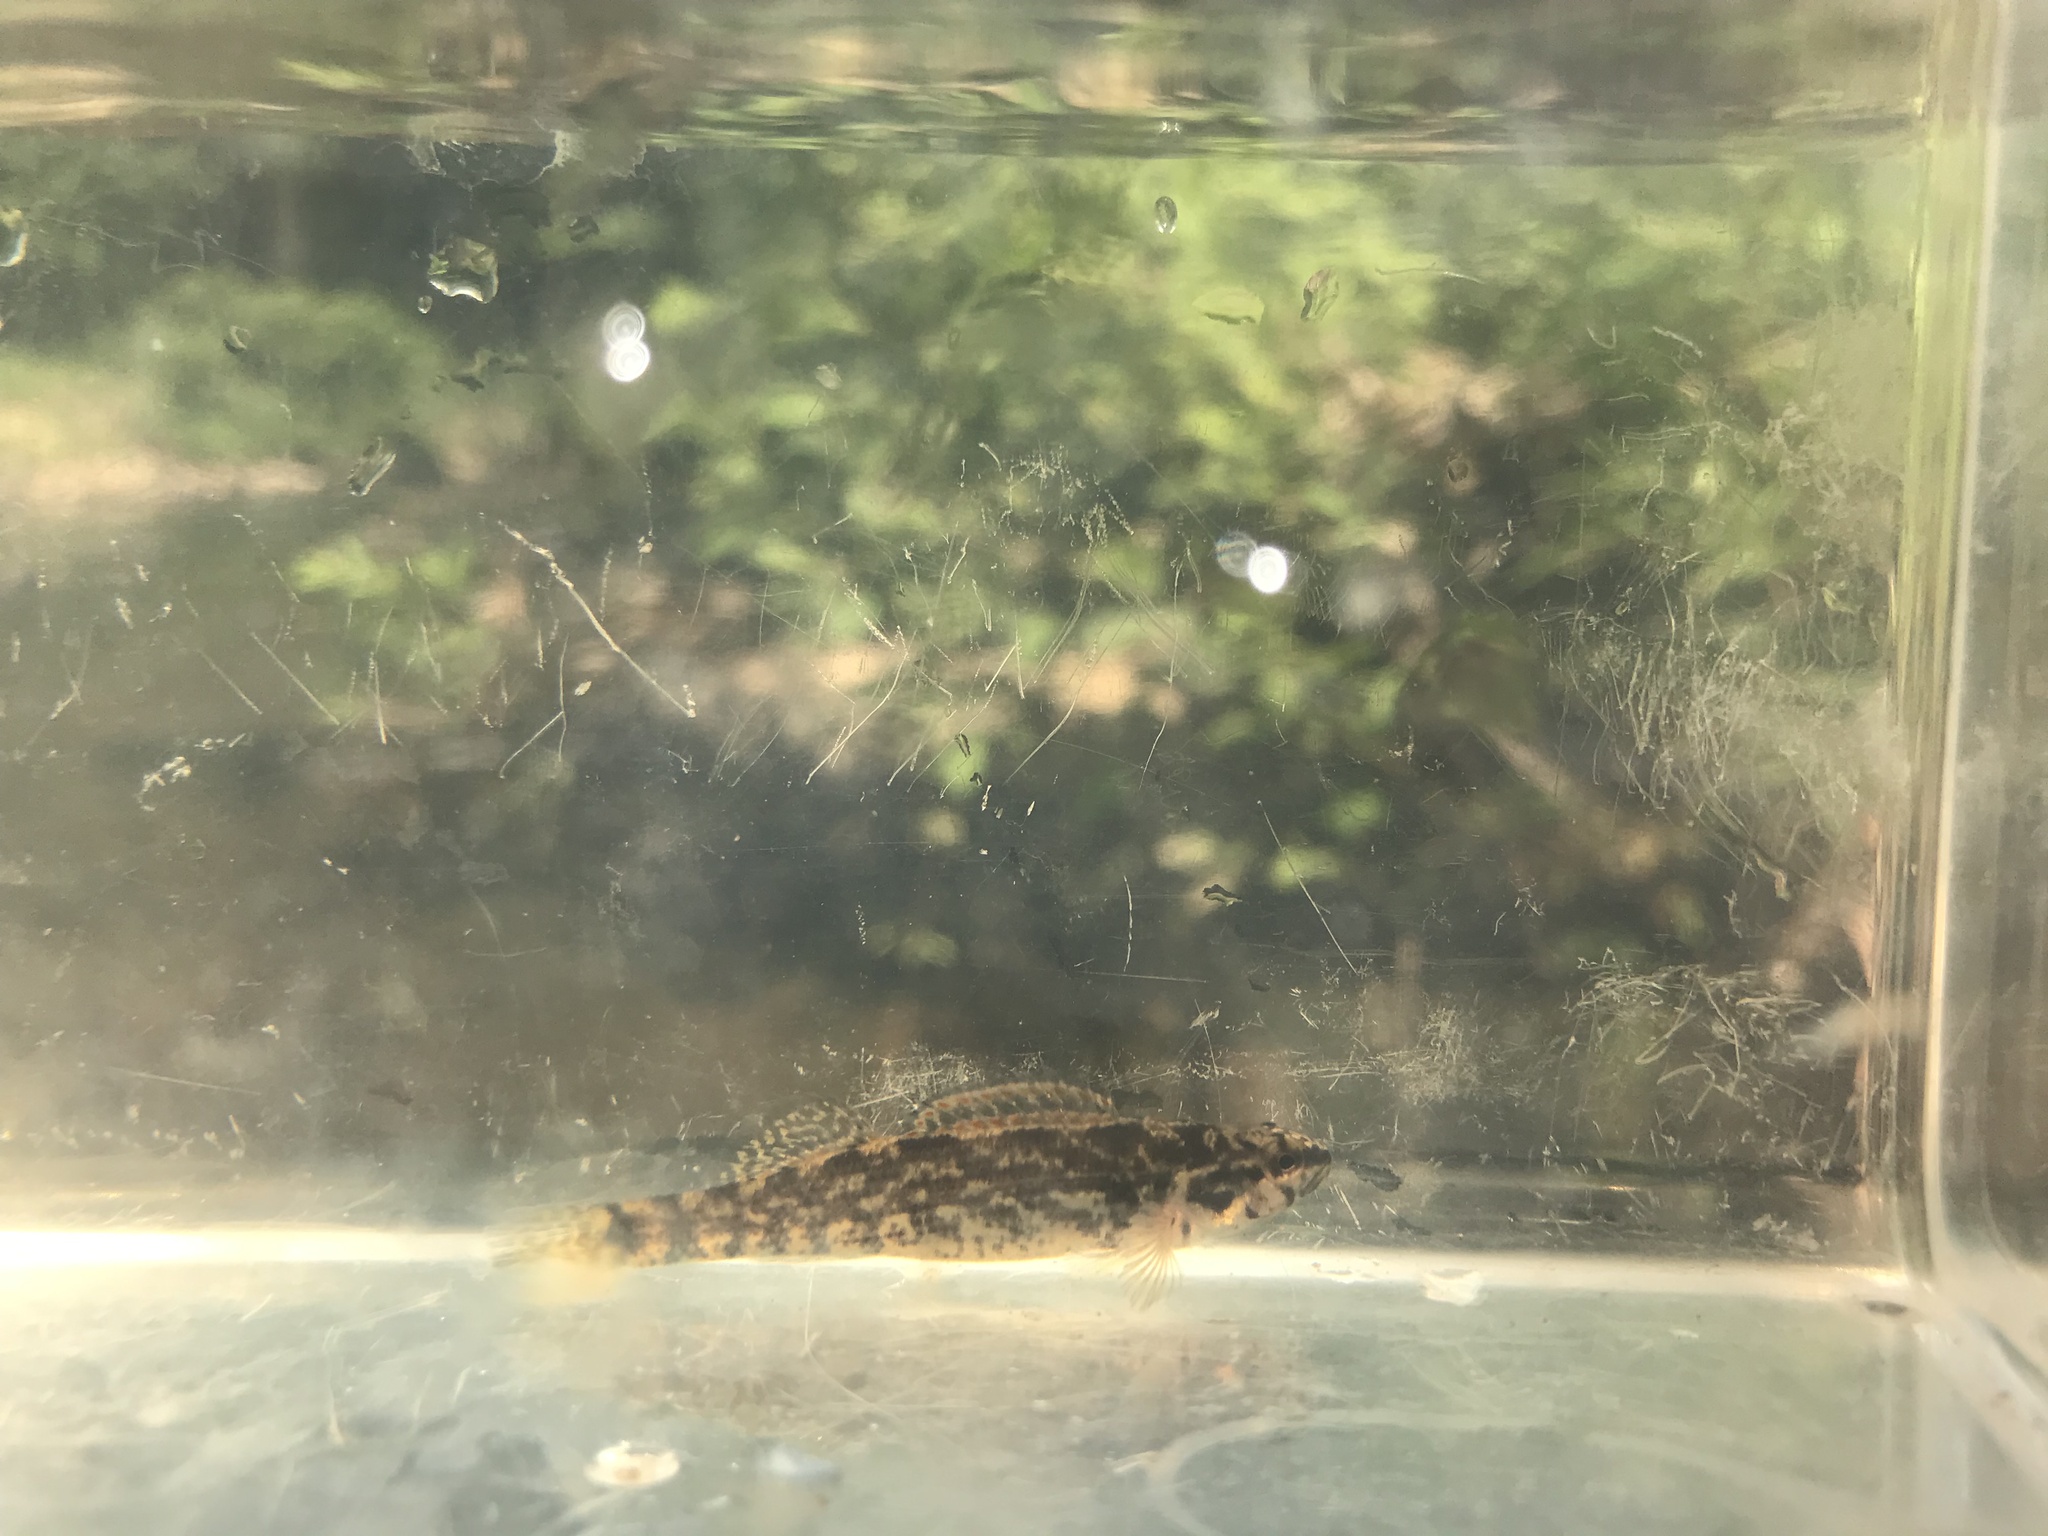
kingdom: Animalia
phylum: Chordata
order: Perciformes
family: Percidae
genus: Etheostoma
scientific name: Etheostoma swaini
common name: Gulf darter
